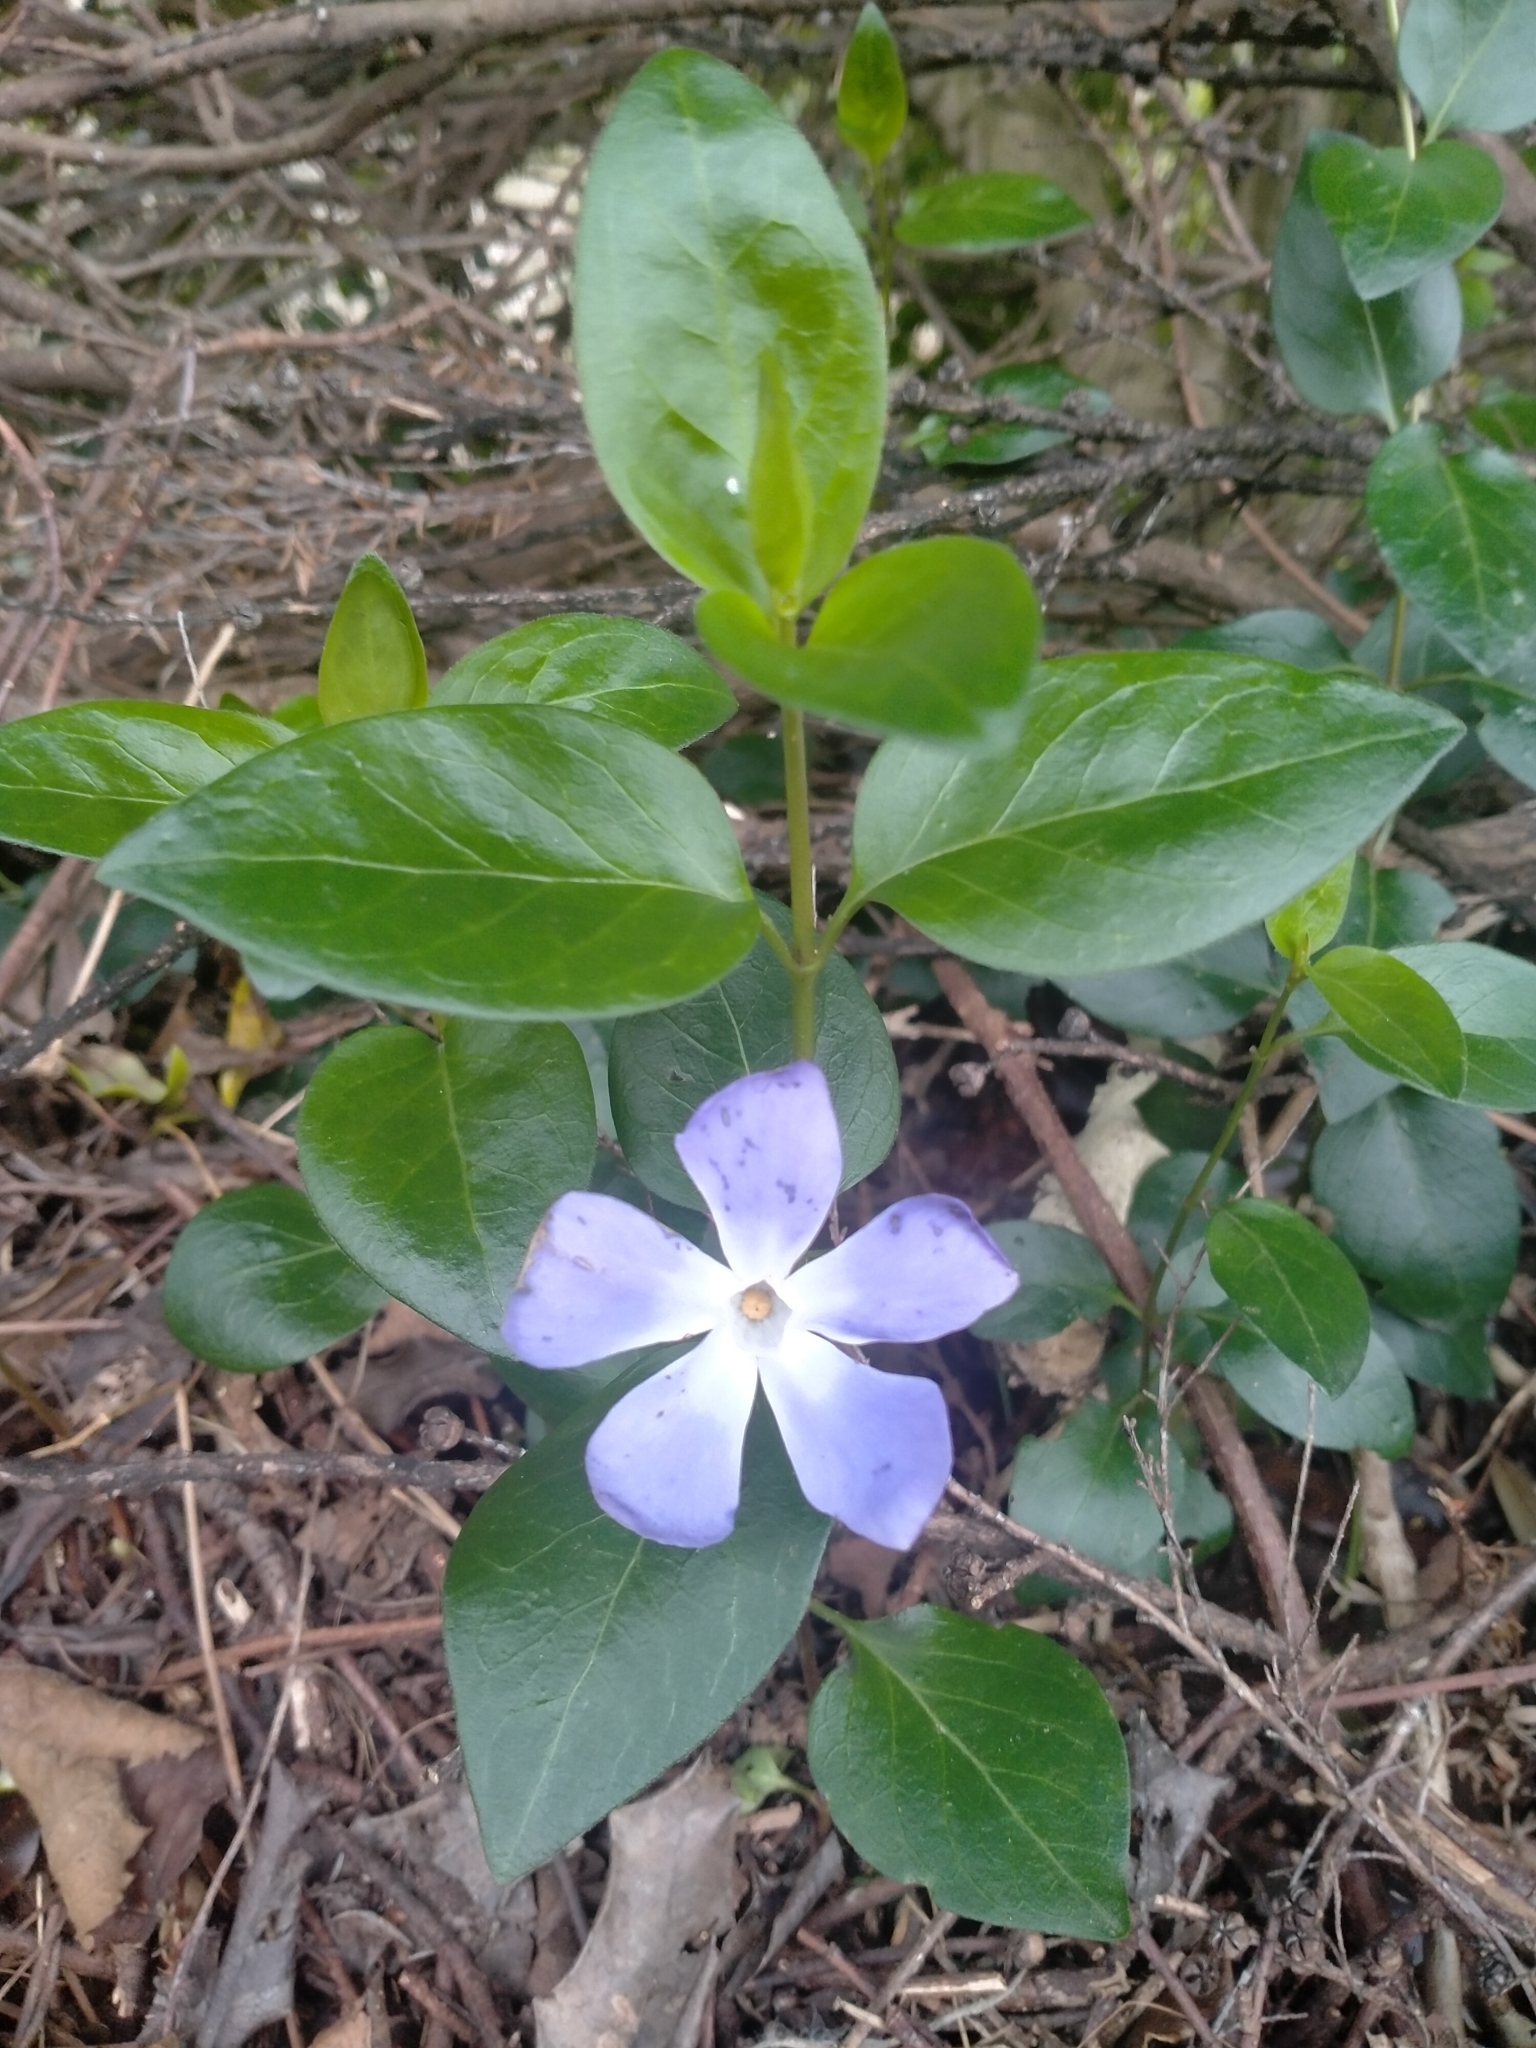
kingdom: Plantae
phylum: Tracheophyta
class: Magnoliopsida
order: Gentianales
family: Apocynaceae
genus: Vinca
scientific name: Vinca major
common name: Greater periwinkle
